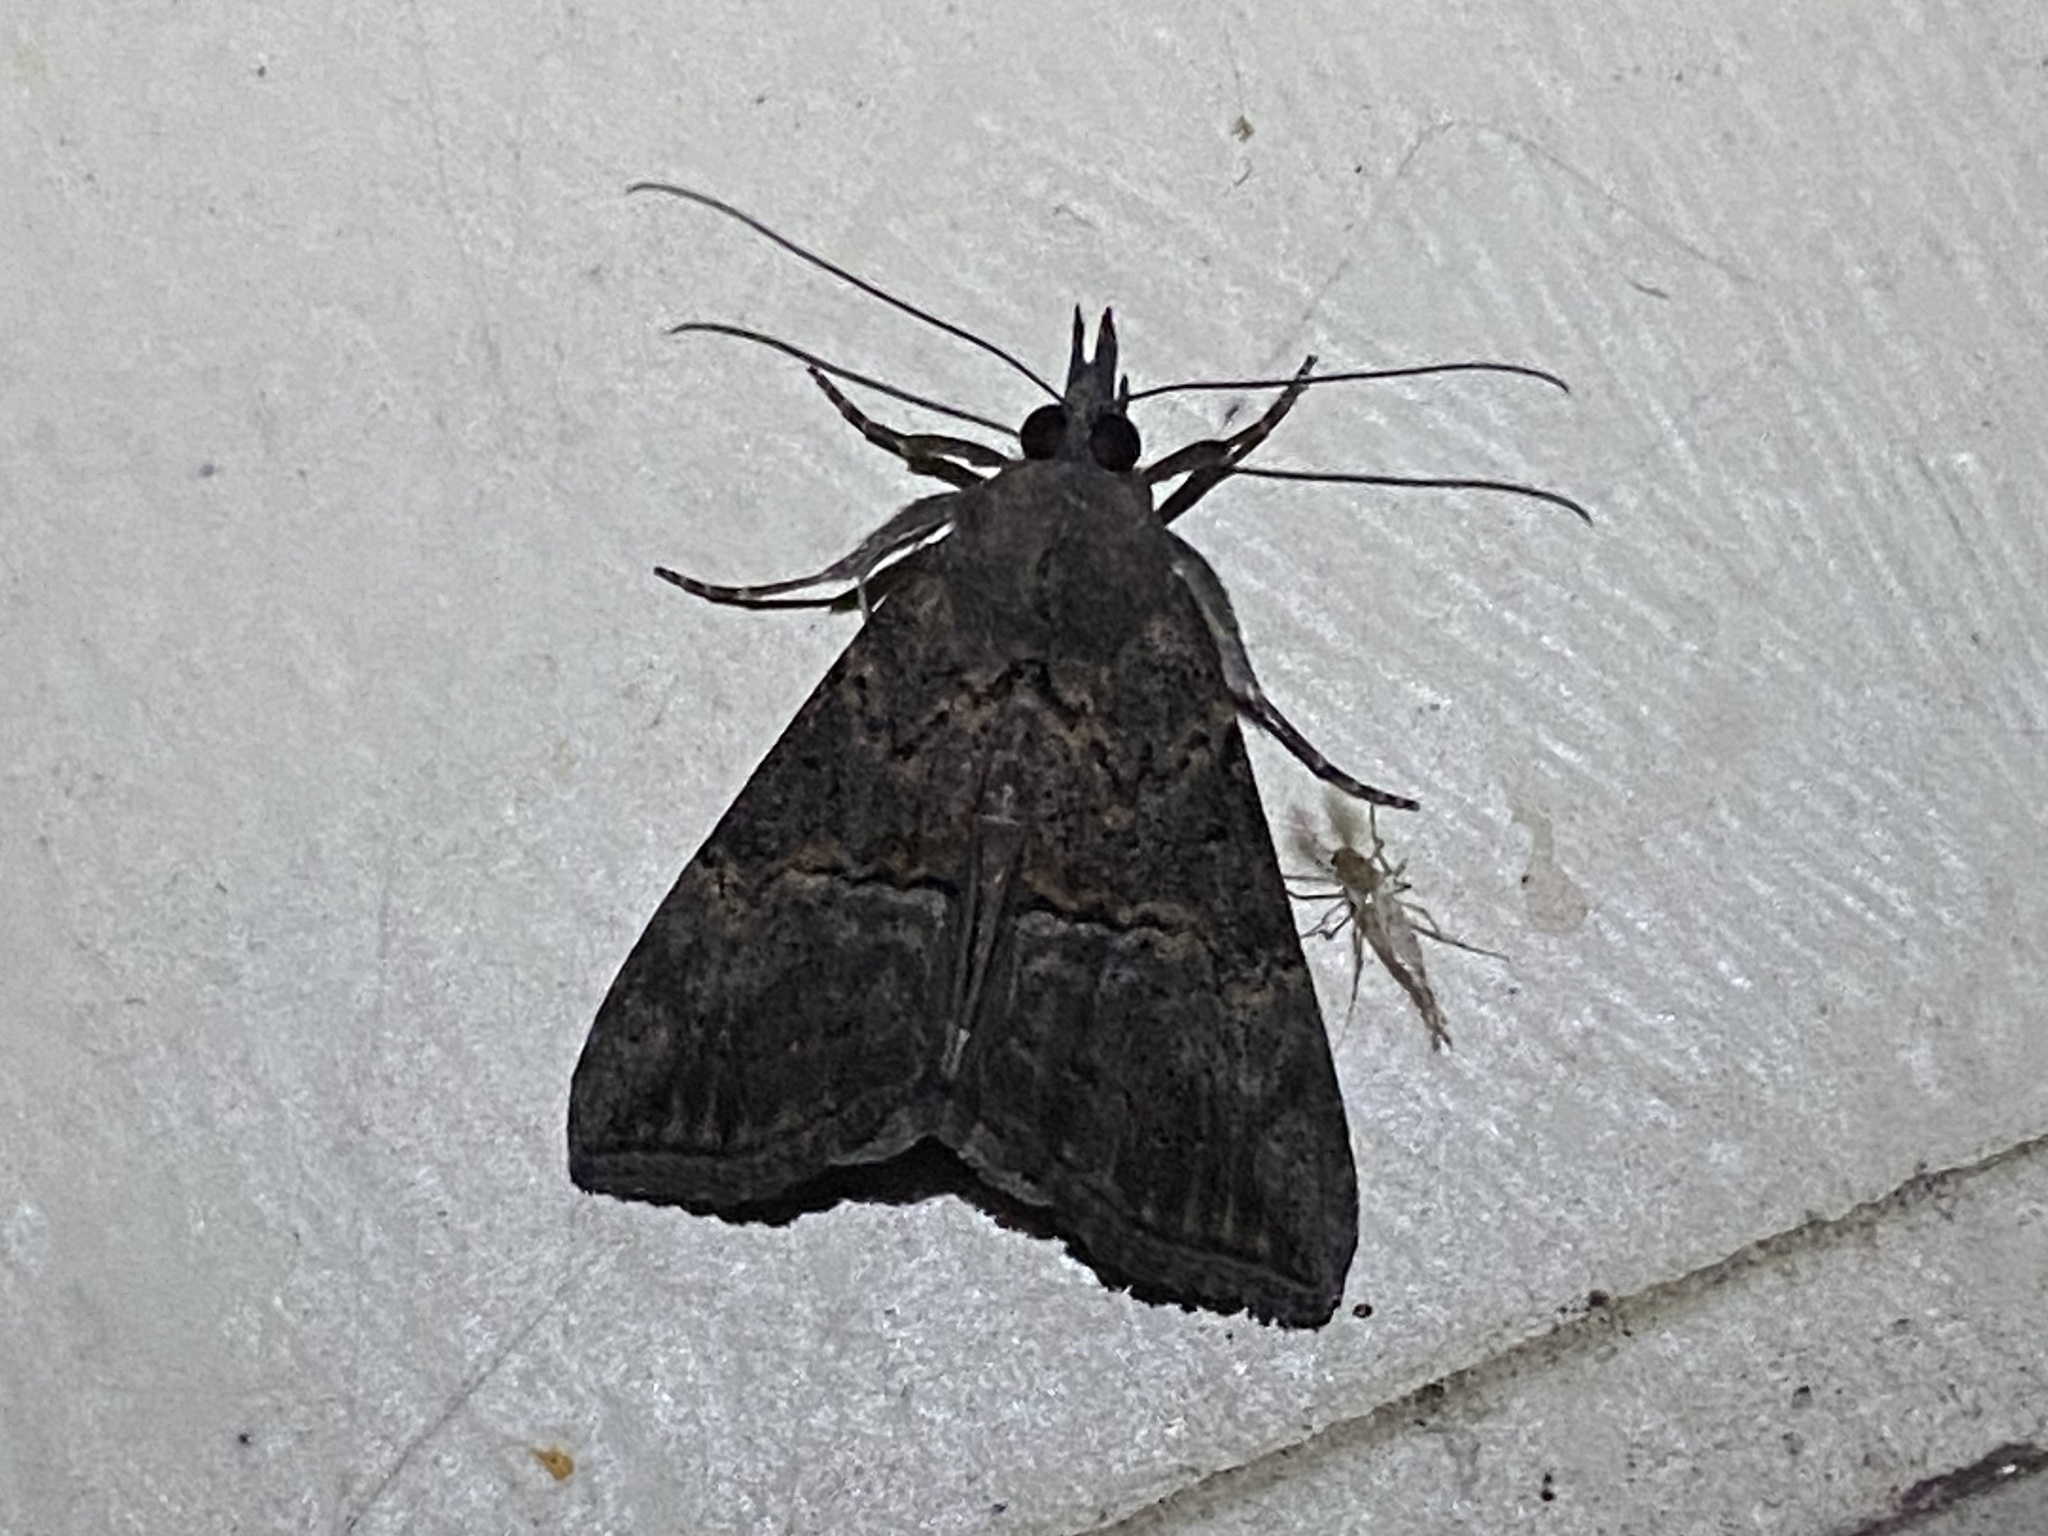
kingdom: Animalia
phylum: Arthropoda
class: Insecta
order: Lepidoptera
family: Erebidae
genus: Hypena
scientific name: Hypena scabra
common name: Green cloverworm
